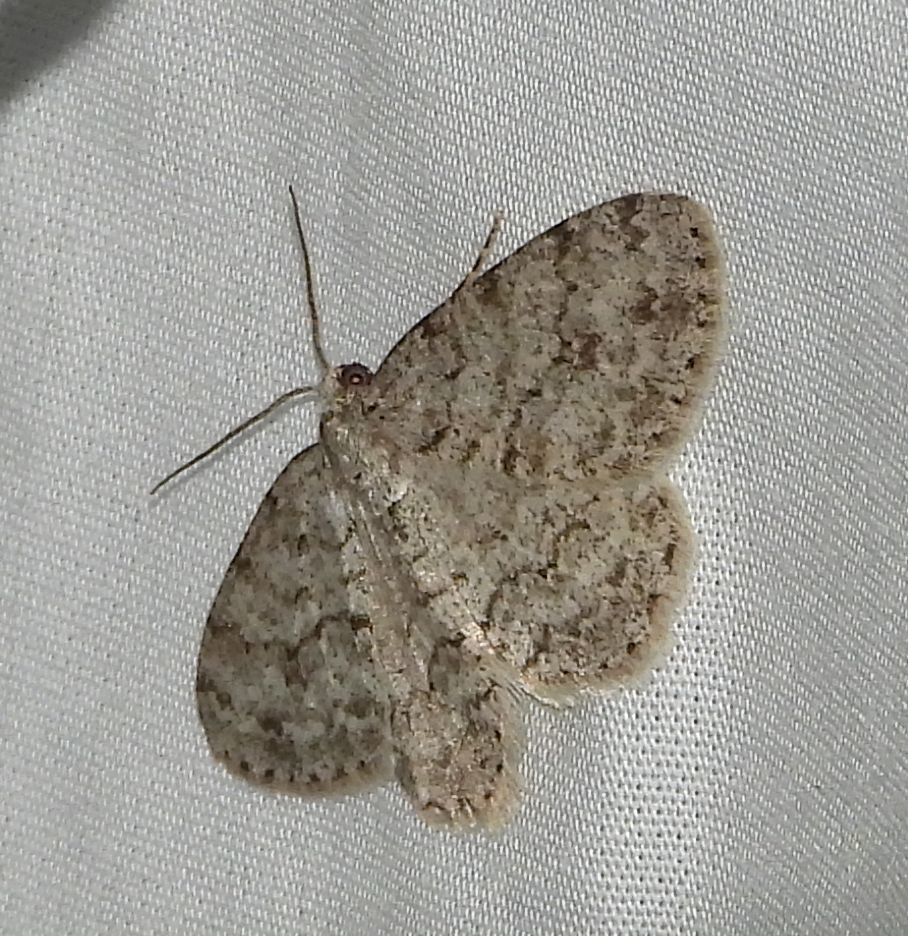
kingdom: Animalia
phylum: Arthropoda
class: Insecta
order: Lepidoptera
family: Geometridae
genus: Ectropis
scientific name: Ectropis crepuscularia
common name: Engrailed
